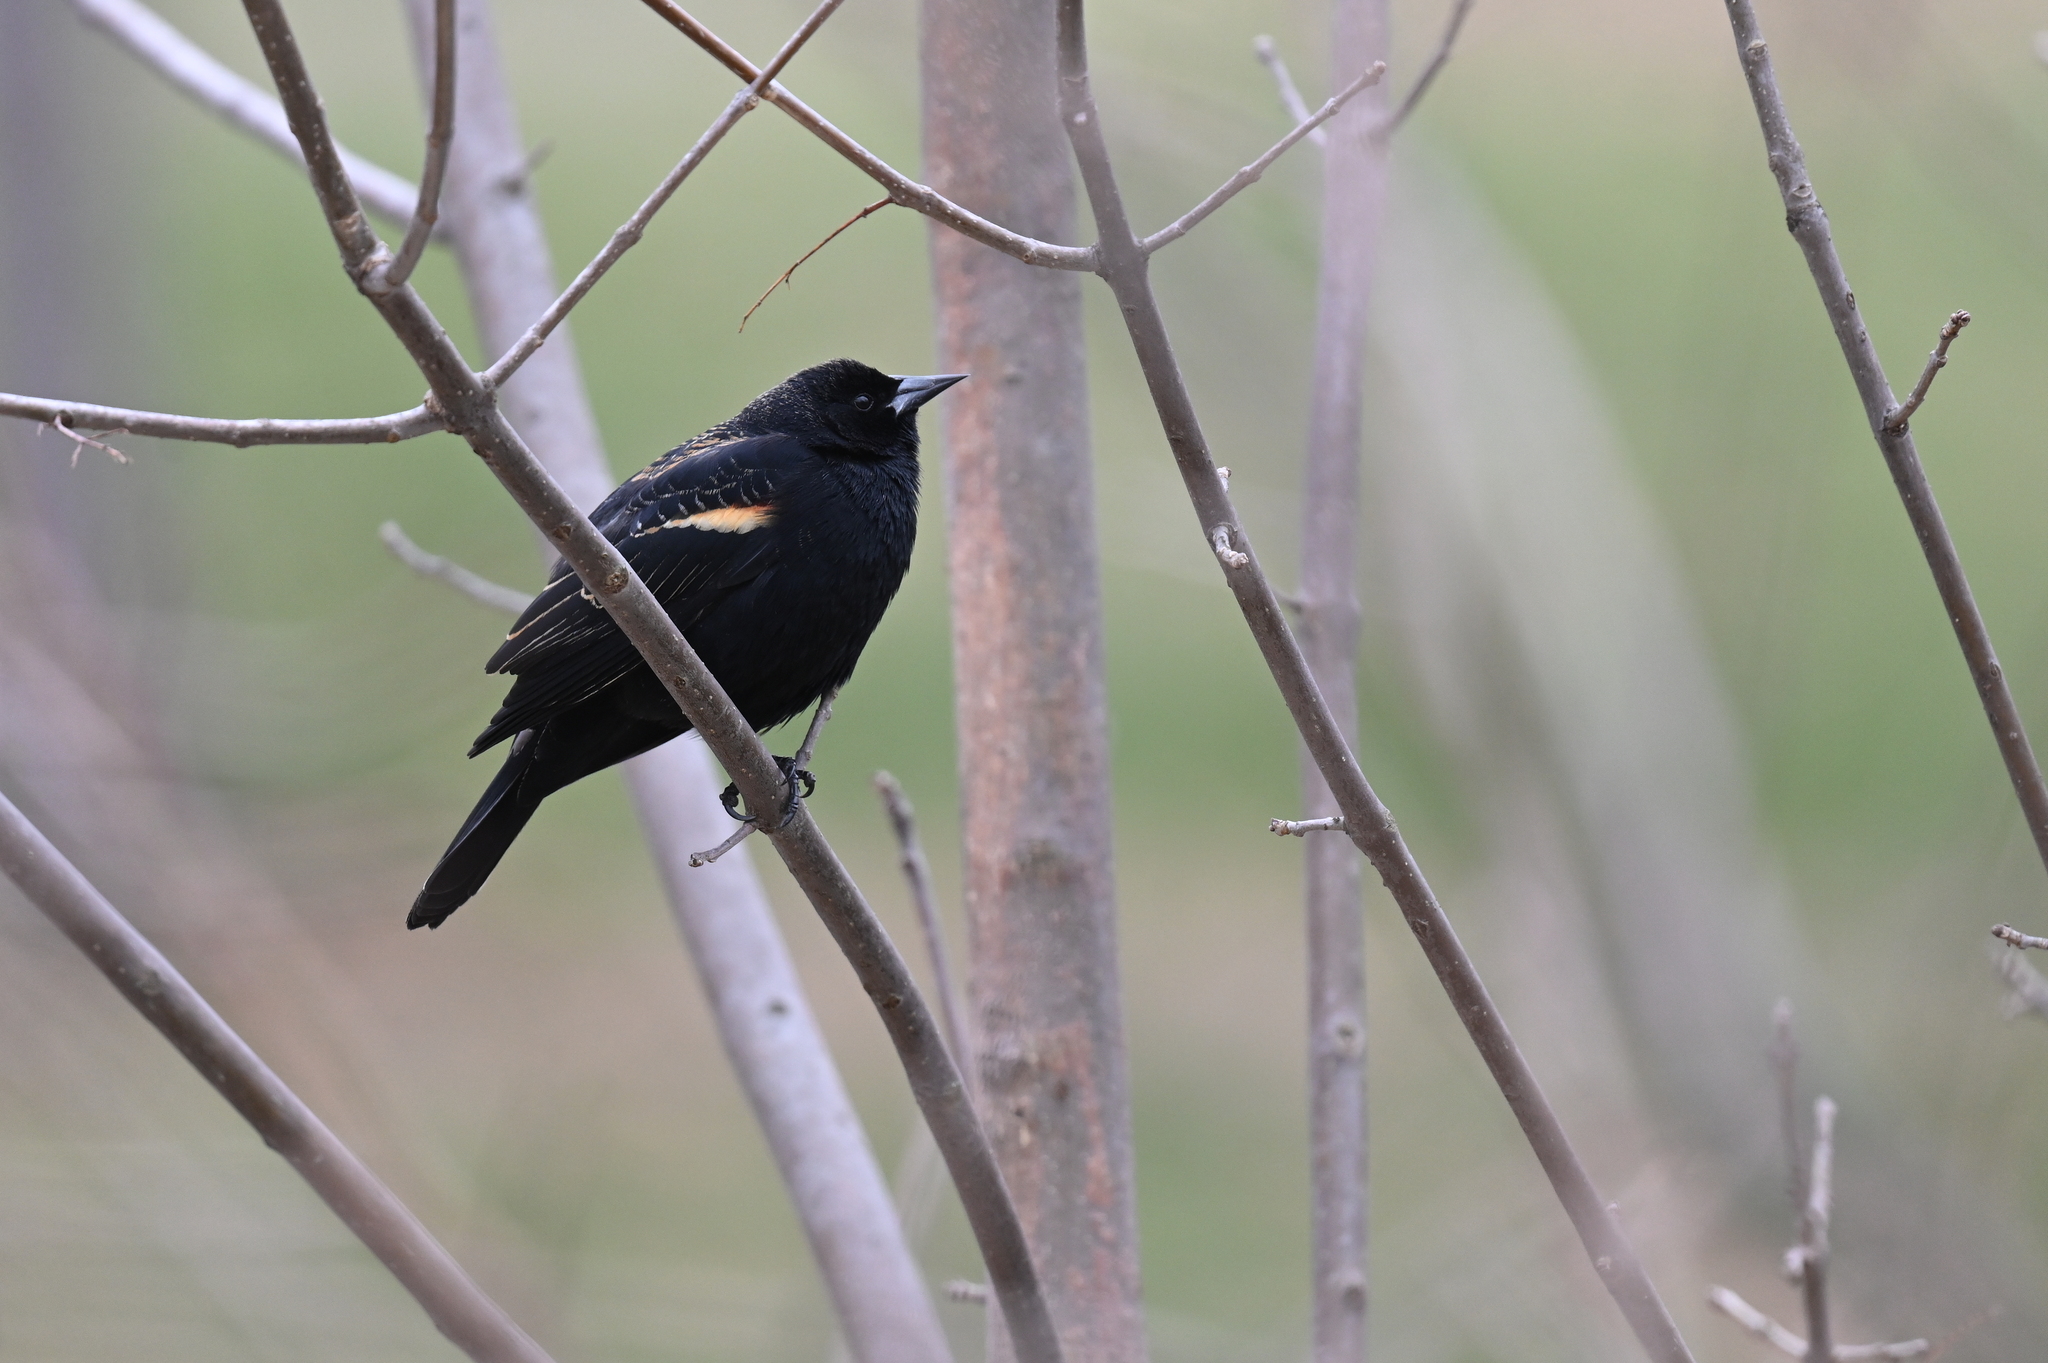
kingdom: Animalia
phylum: Chordata
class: Aves
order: Passeriformes
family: Icteridae
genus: Agelaius
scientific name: Agelaius phoeniceus
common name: Red-winged blackbird
